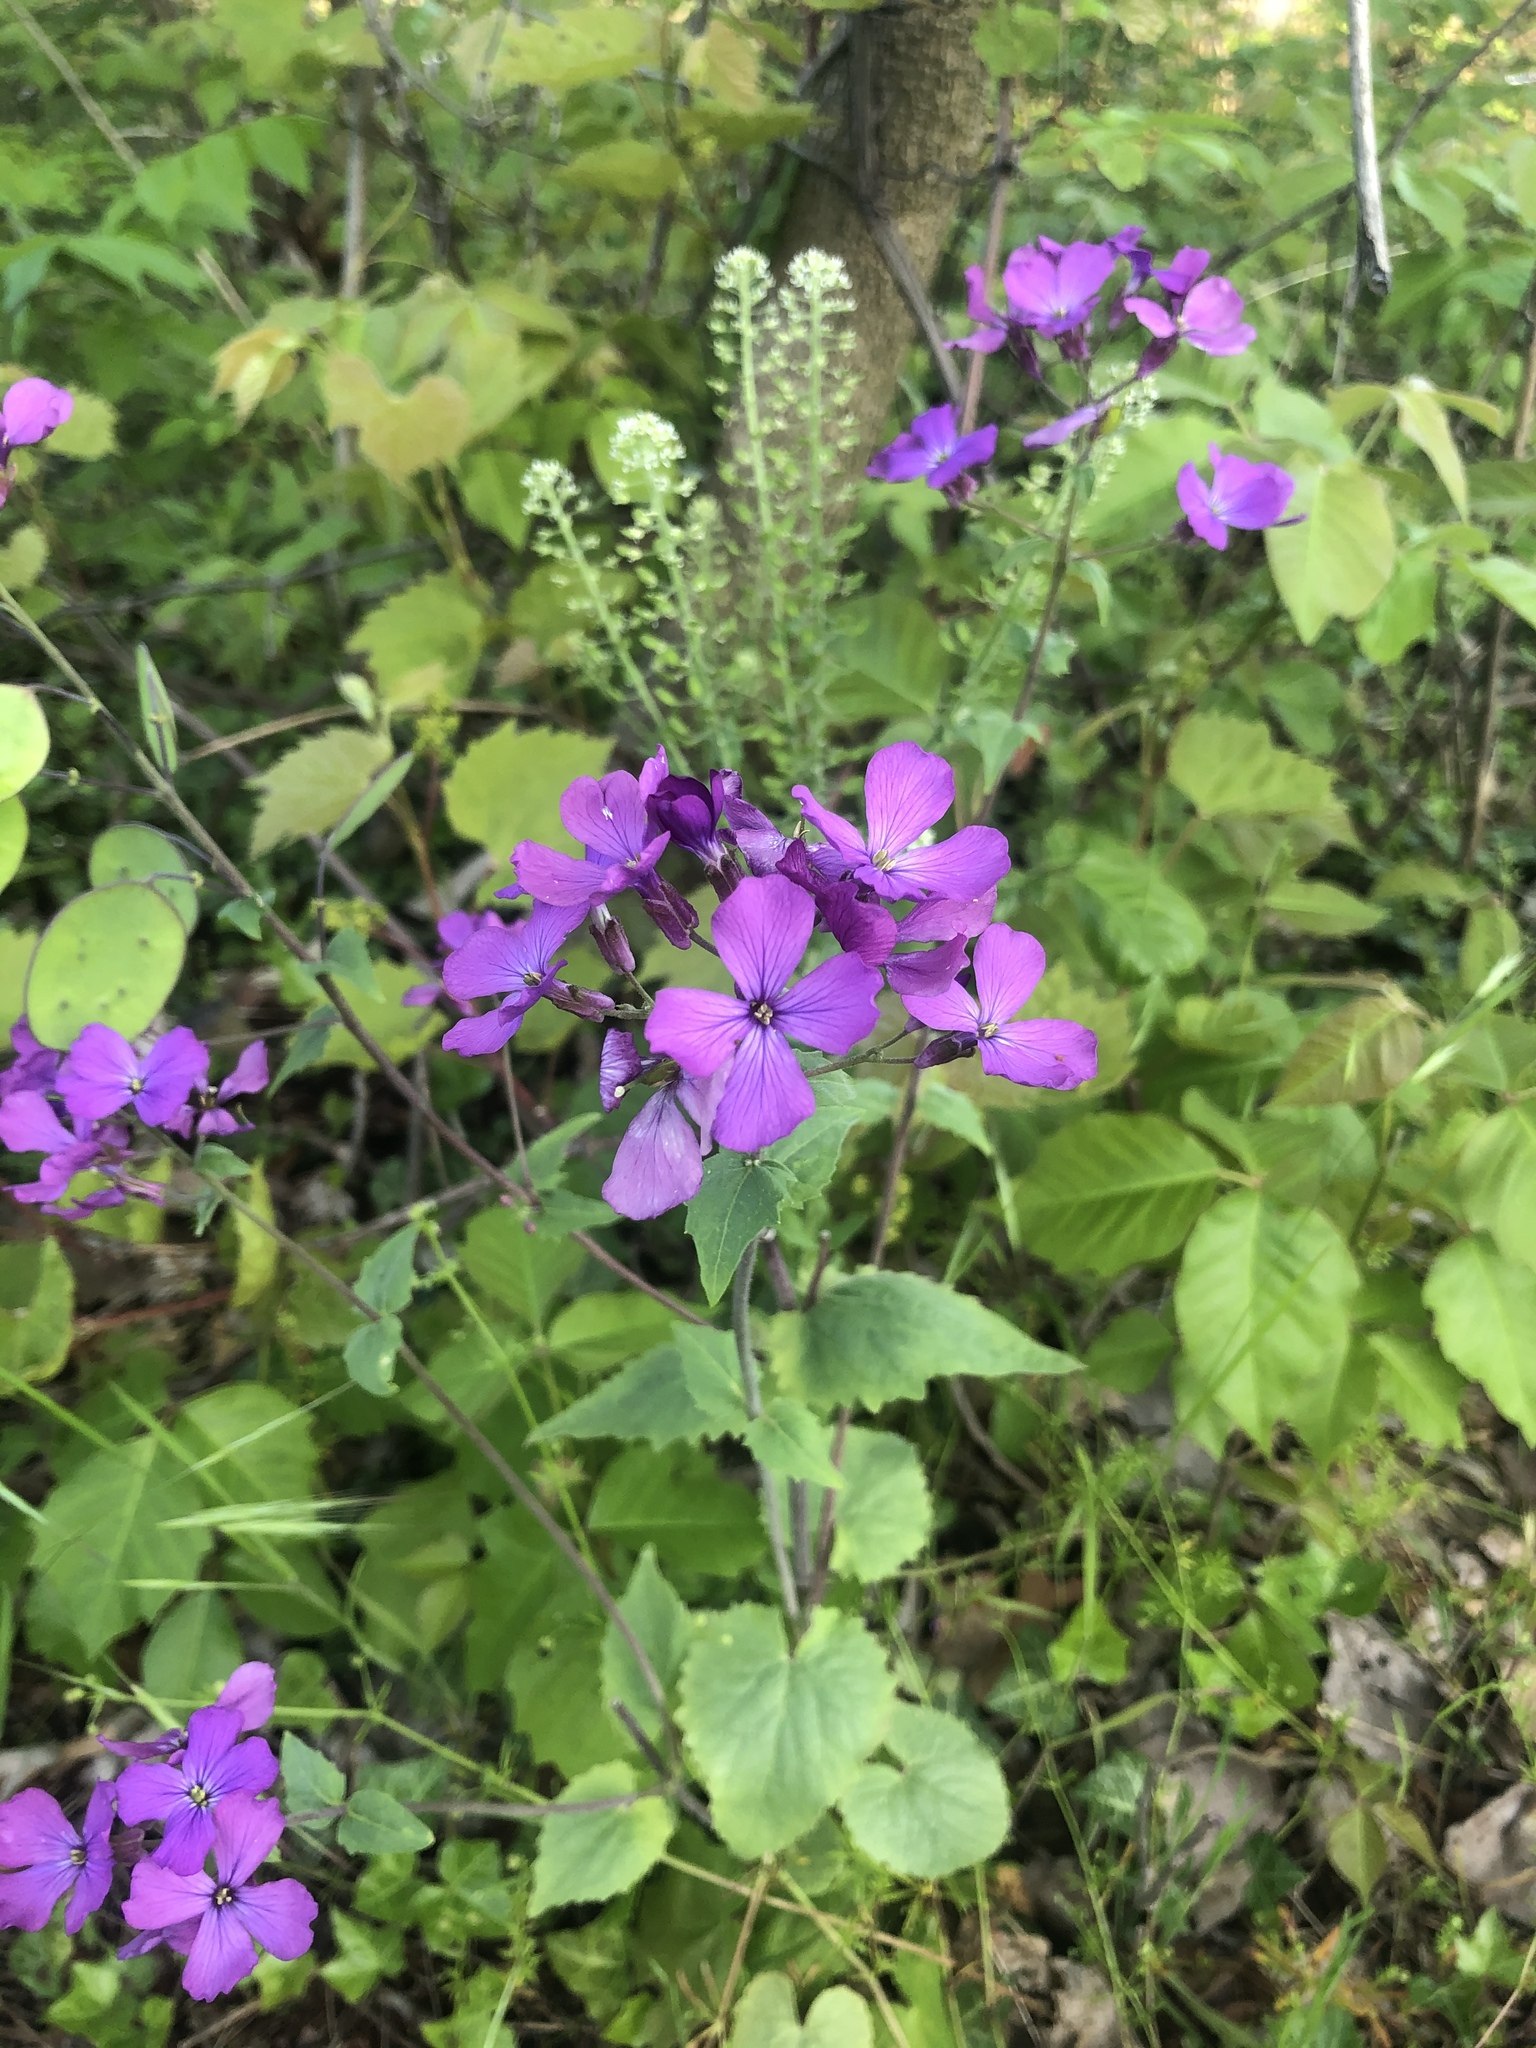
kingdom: Plantae
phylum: Tracheophyta
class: Magnoliopsida
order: Brassicales
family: Brassicaceae
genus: Lunaria
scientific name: Lunaria annua
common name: Honesty
